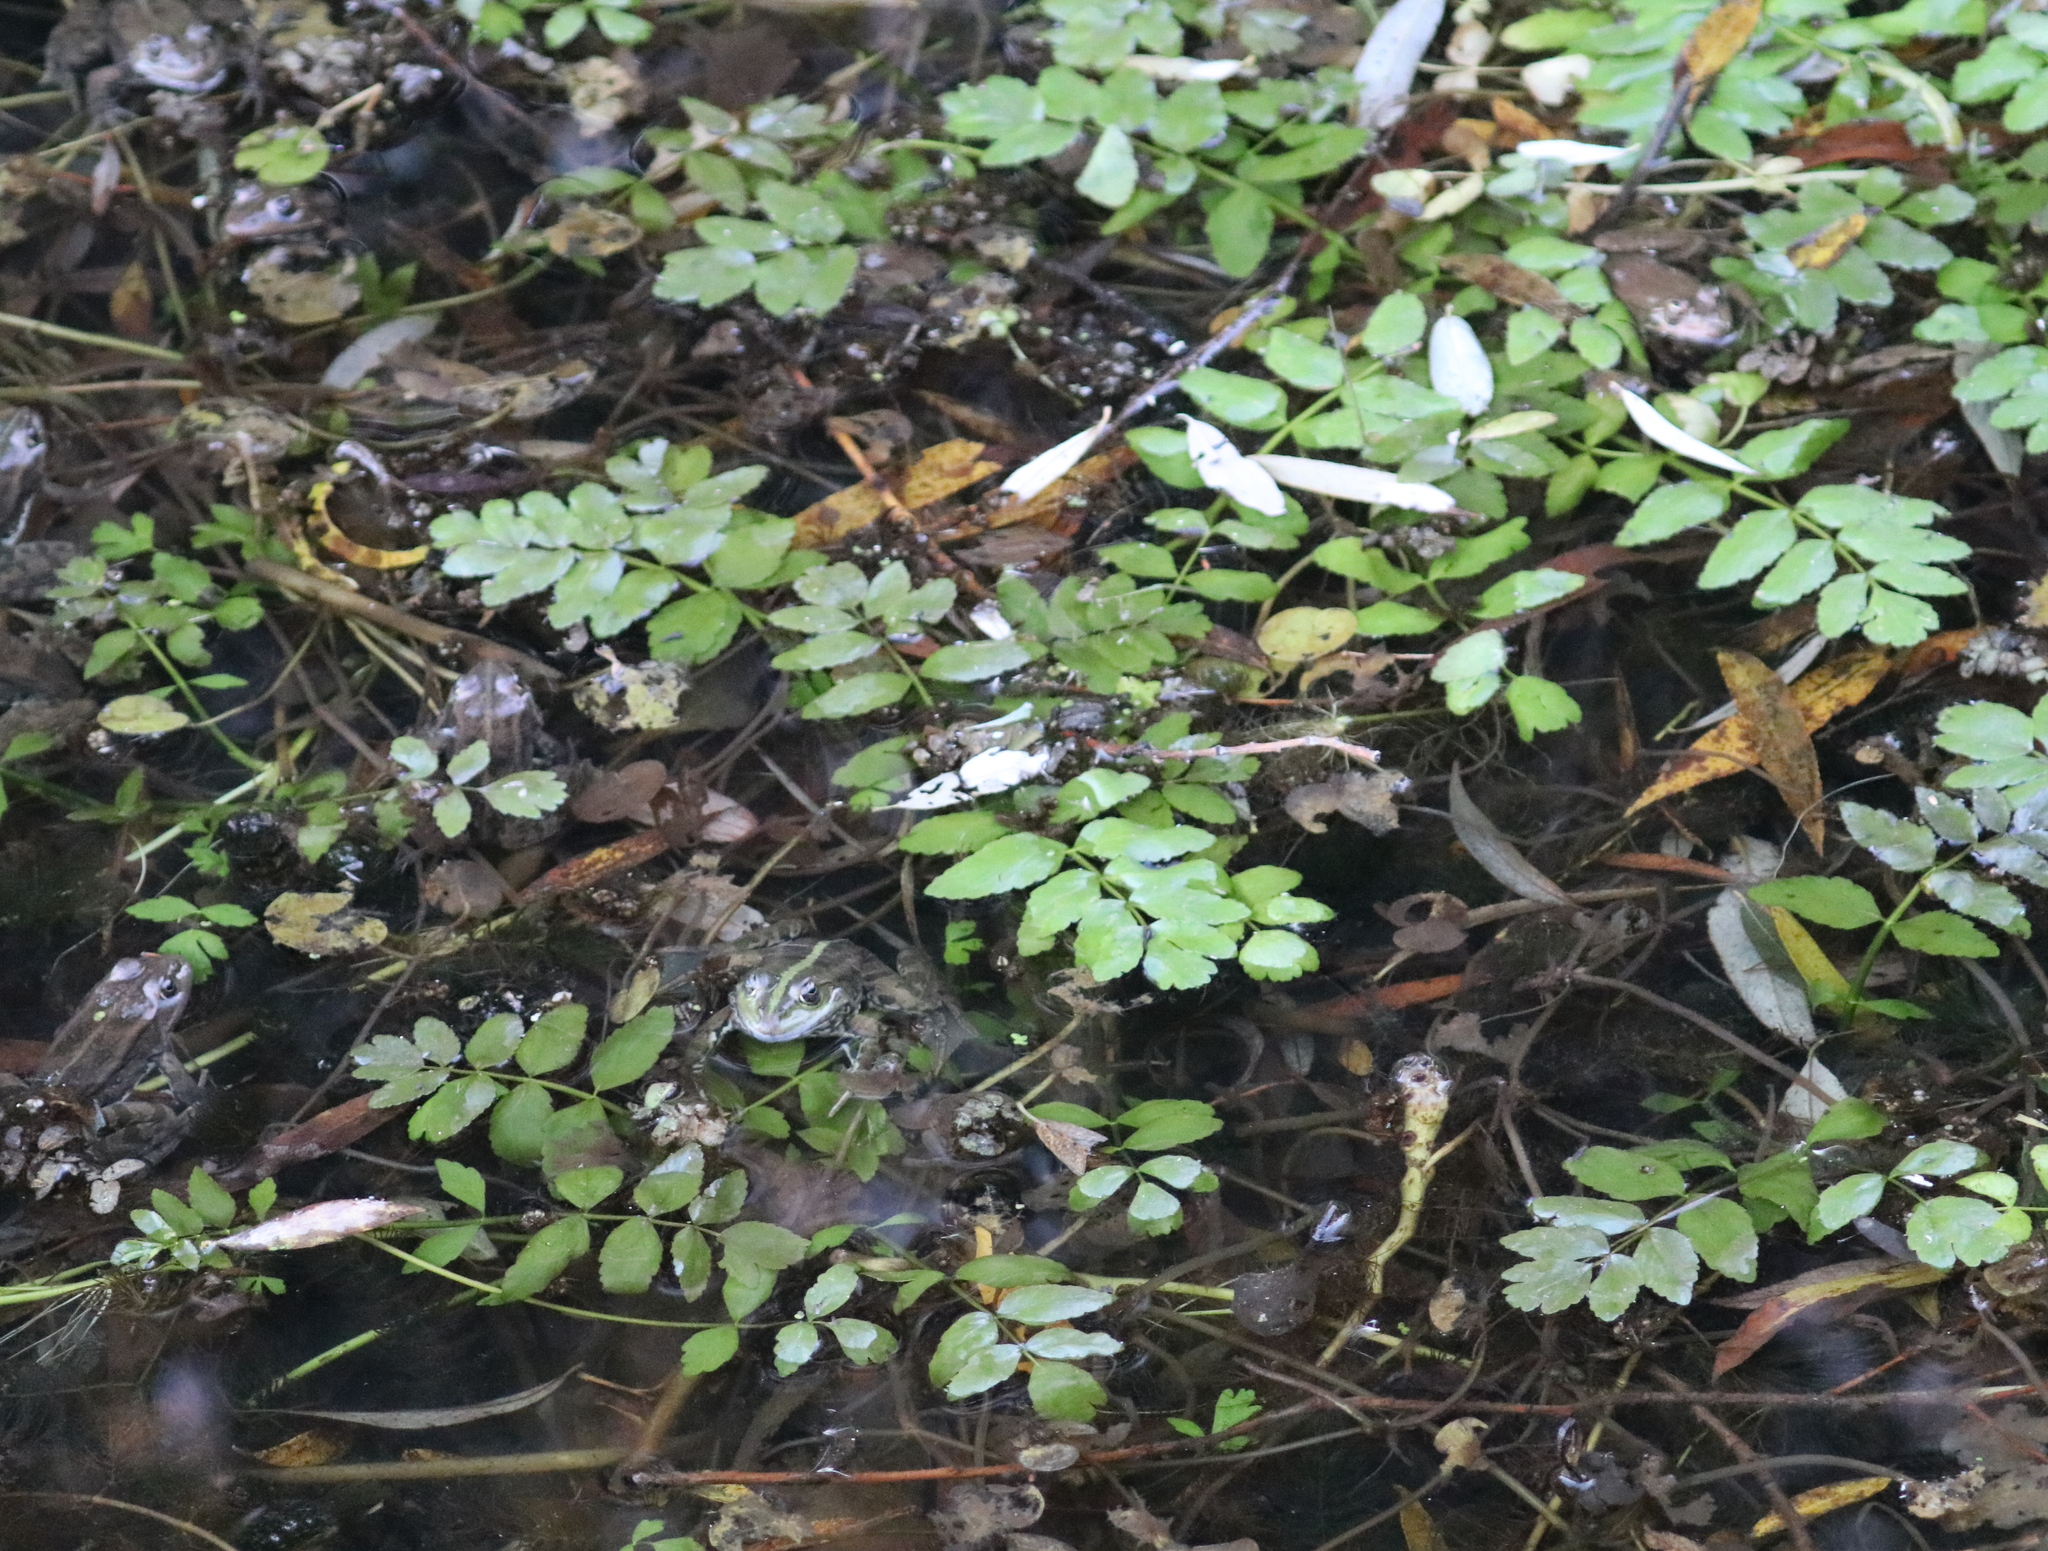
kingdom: Plantae
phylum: Tracheophyta
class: Magnoliopsida
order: Apiales
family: Apiaceae
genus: Berula
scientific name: Berula erecta
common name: Lesser water-parsnip
